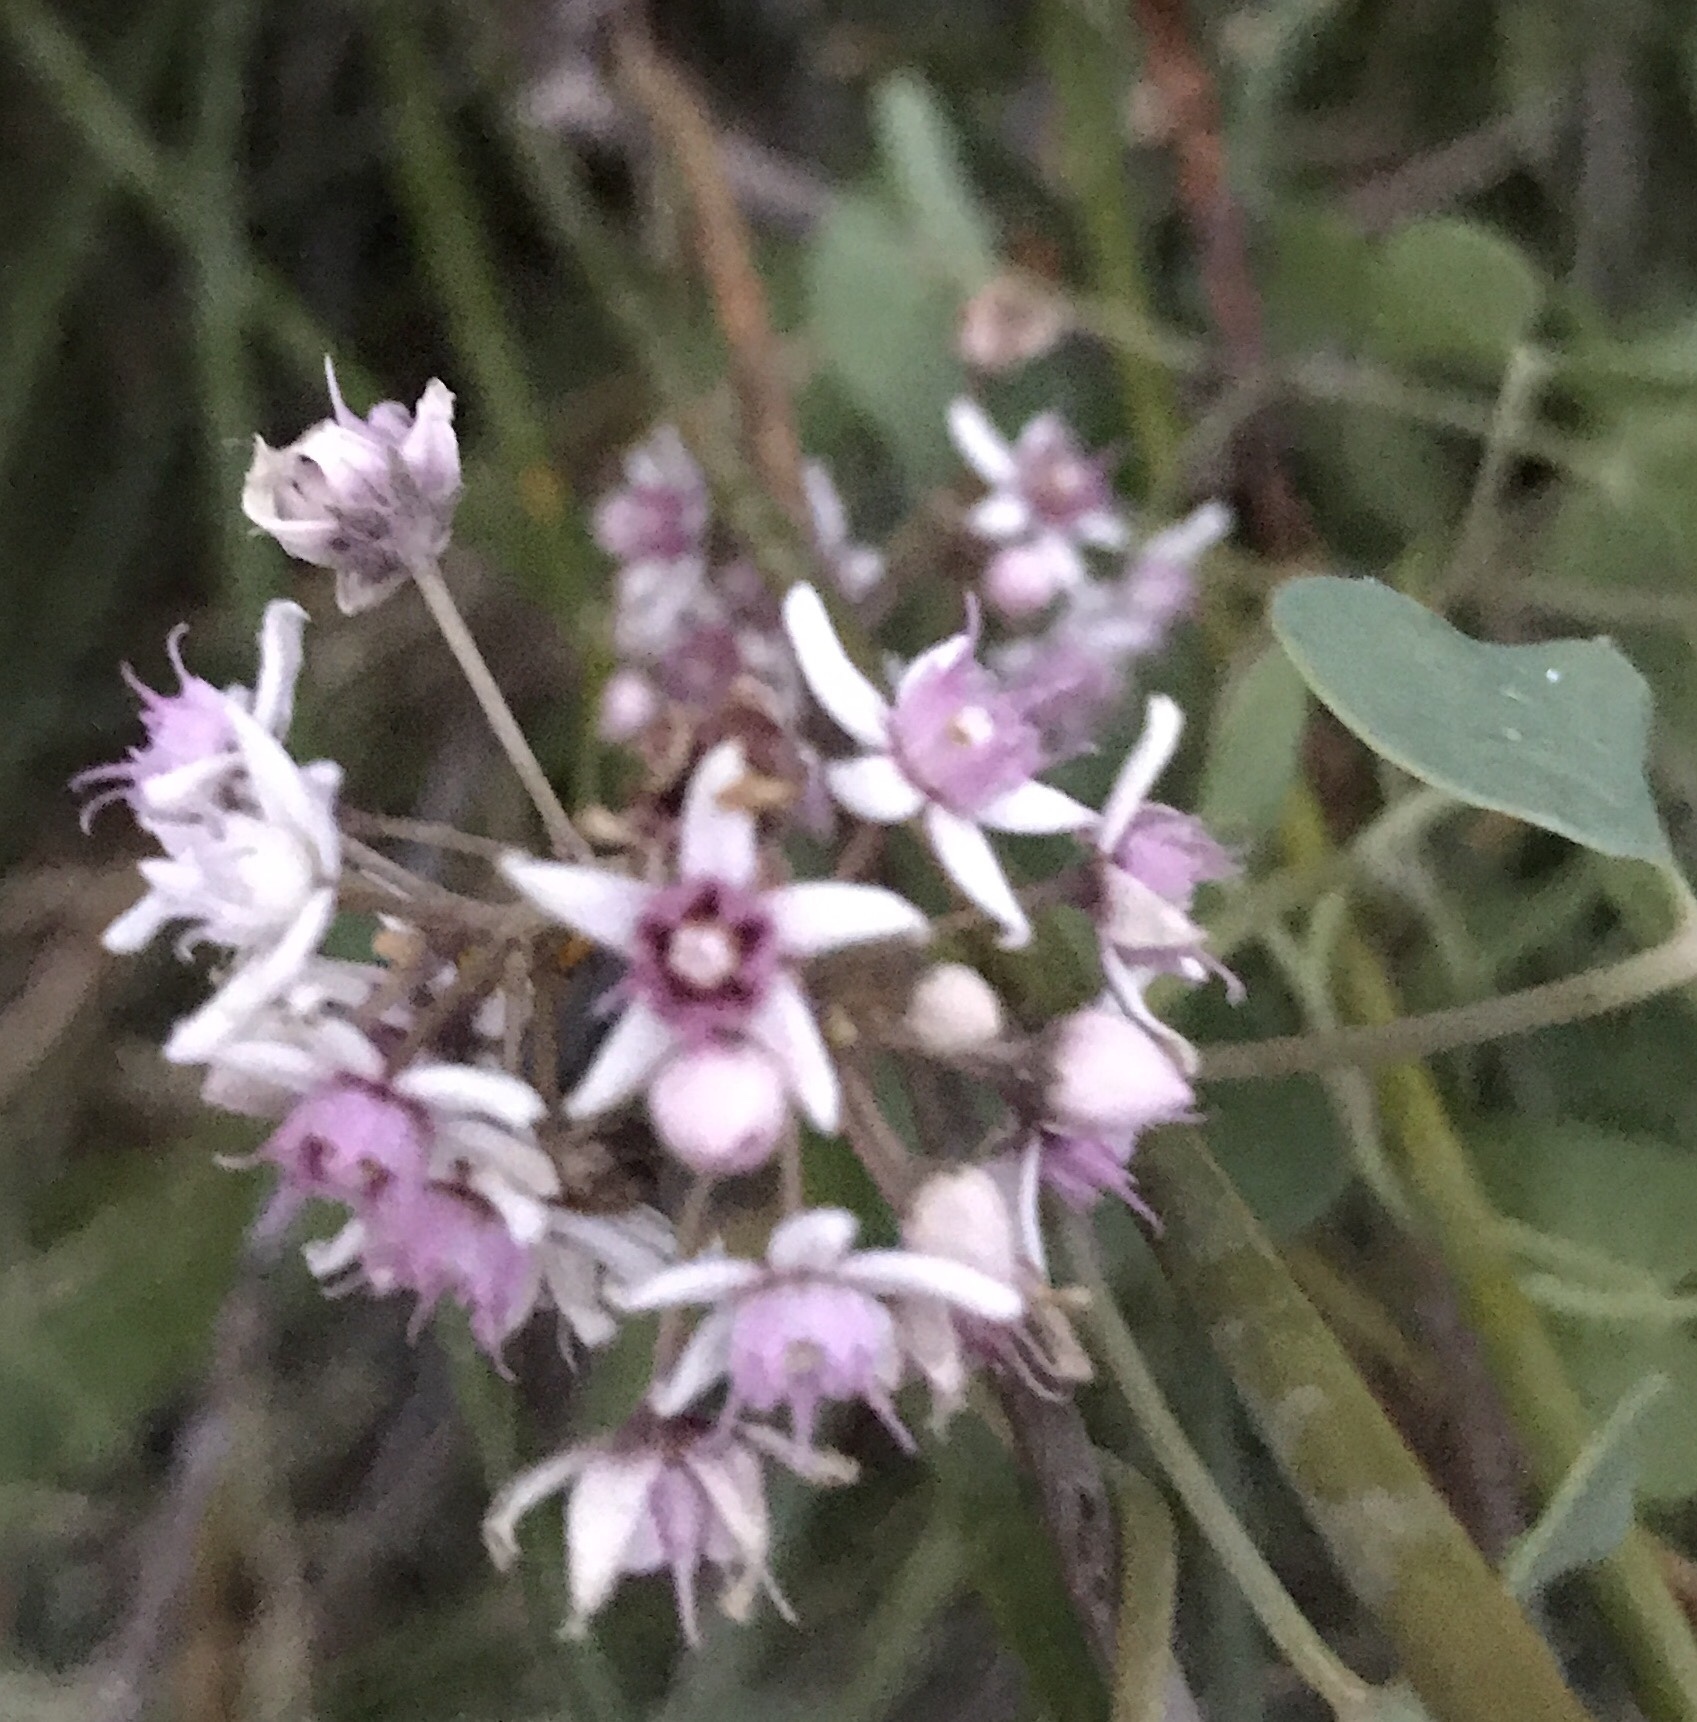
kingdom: Plantae
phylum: Tracheophyta
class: Magnoliopsida
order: Gentianales
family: Apocynaceae
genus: Cynanchum
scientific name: Cynanchum acutum
